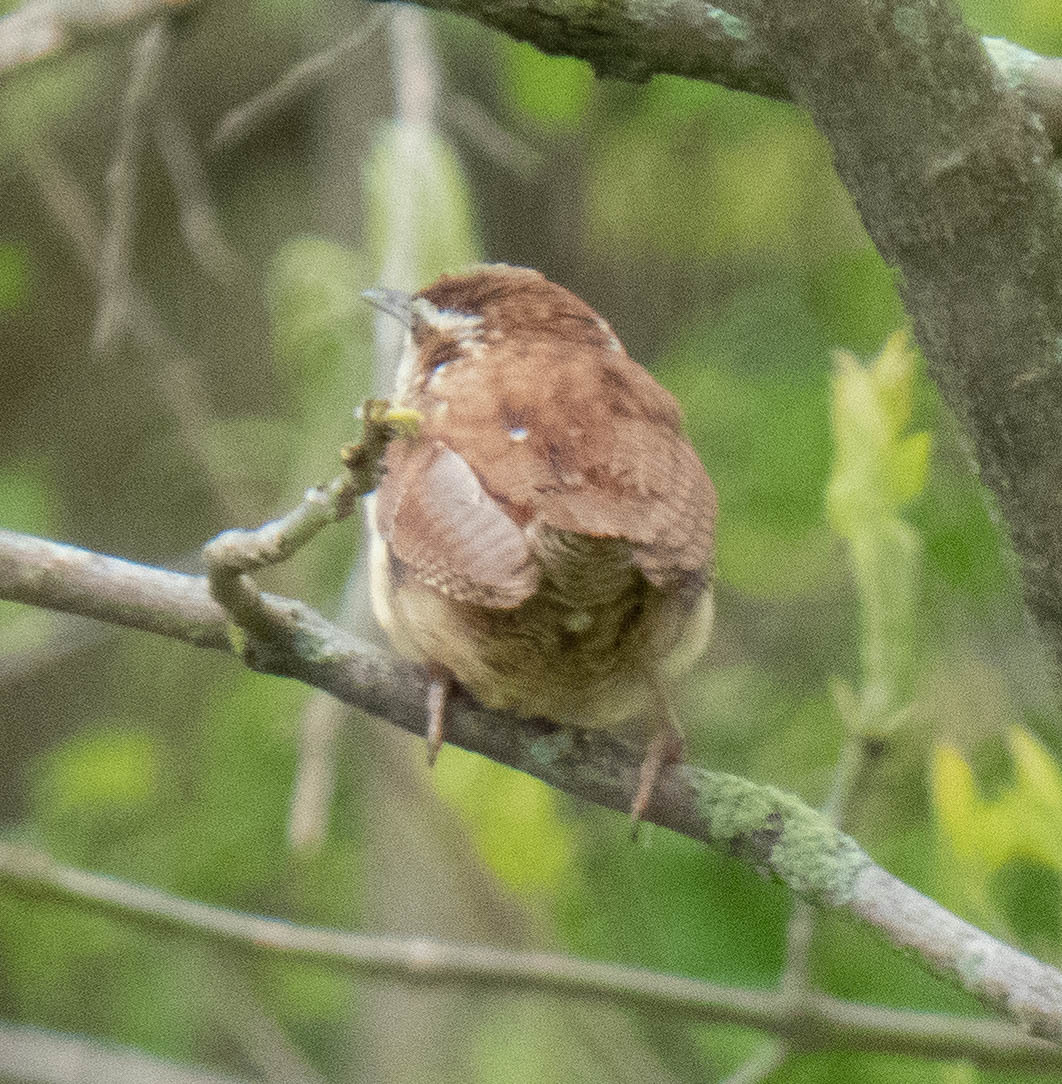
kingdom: Animalia
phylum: Chordata
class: Aves
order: Passeriformes
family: Troglodytidae
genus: Thryothorus
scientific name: Thryothorus ludovicianus
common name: Carolina wren
